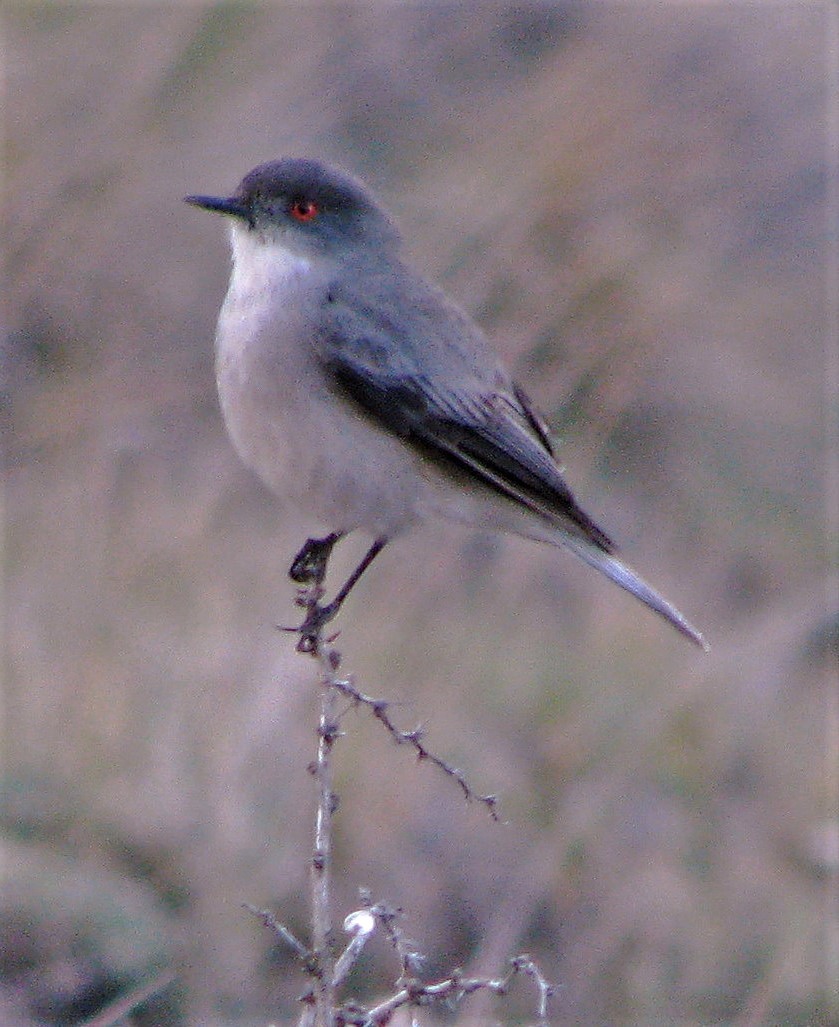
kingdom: Animalia
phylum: Chordata
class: Aves
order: Passeriformes
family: Tyrannidae
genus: Xolmis
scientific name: Xolmis pyrope
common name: Fire-eyed diucon
